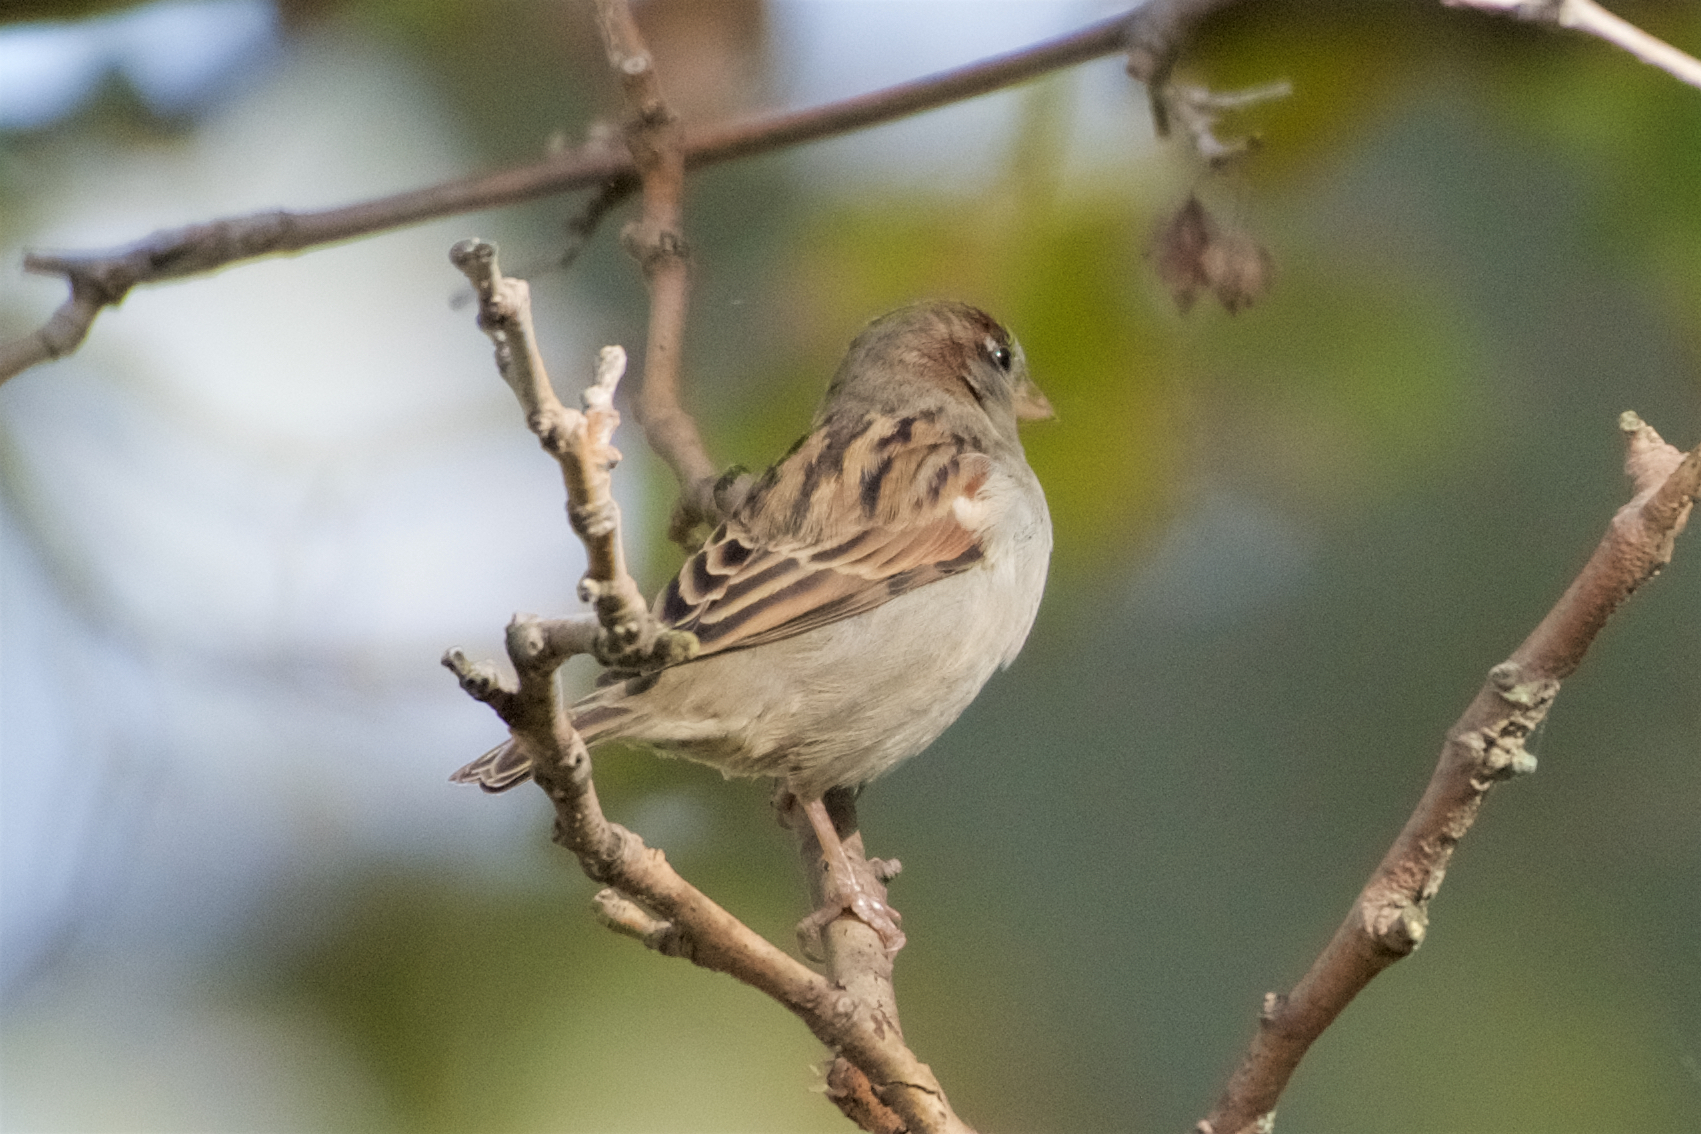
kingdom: Animalia
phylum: Chordata
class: Aves
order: Passeriformes
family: Passeridae
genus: Passer
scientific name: Passer domesticus
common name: House sparrow
